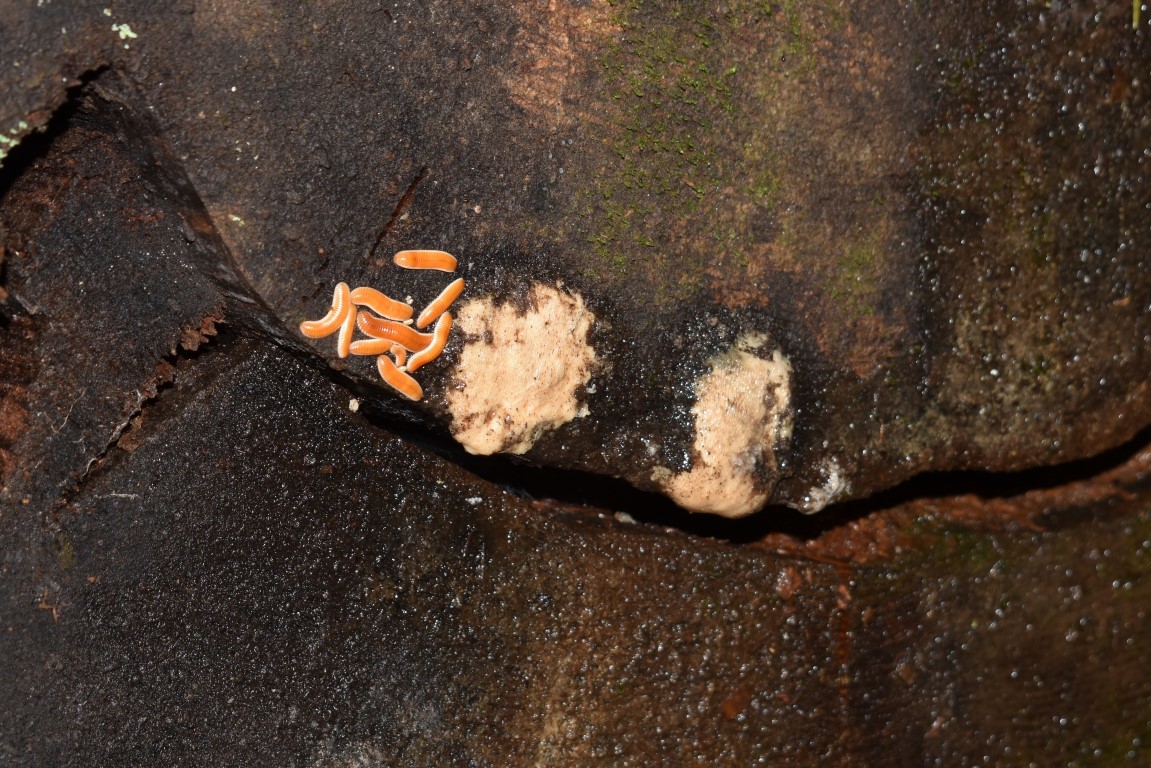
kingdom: Animalia
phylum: Arthropoda
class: Diplopoda
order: Polyzoniida
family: Polyzoniidae
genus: Bdellozonium
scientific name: Bdellozonium cerviculatum
